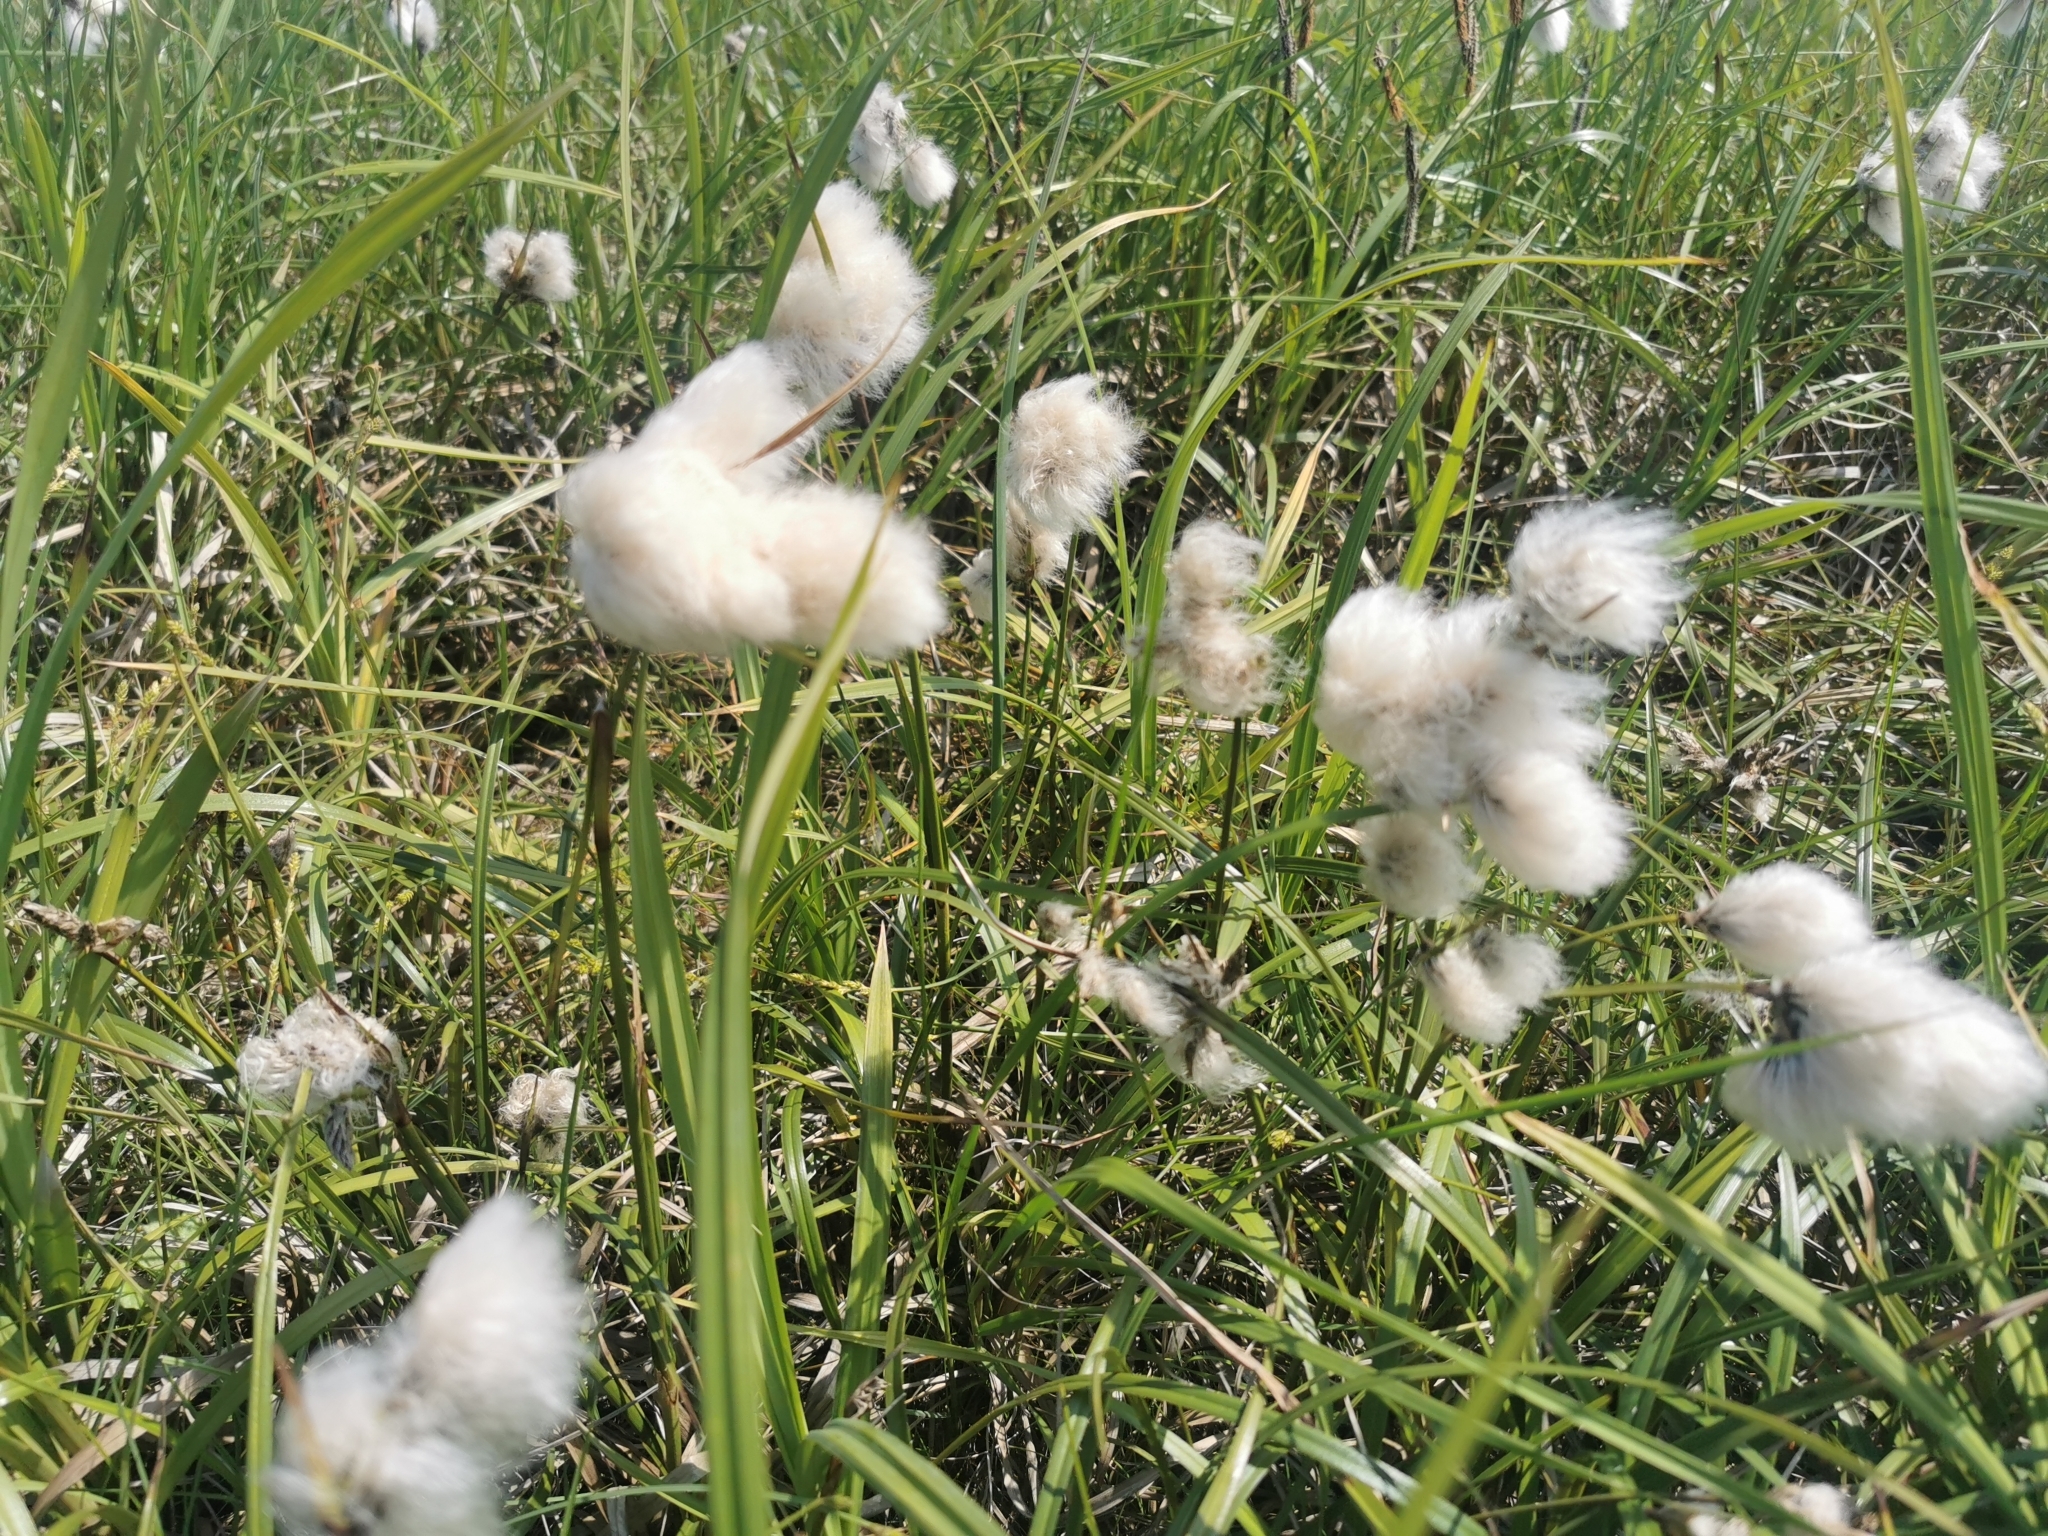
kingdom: Plantae
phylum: Tracheophyta
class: Liliopsida
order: Poales
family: Cyperaceae
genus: Eriophorum
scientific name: Eriophorum angustifolium
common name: Common cottongrass
